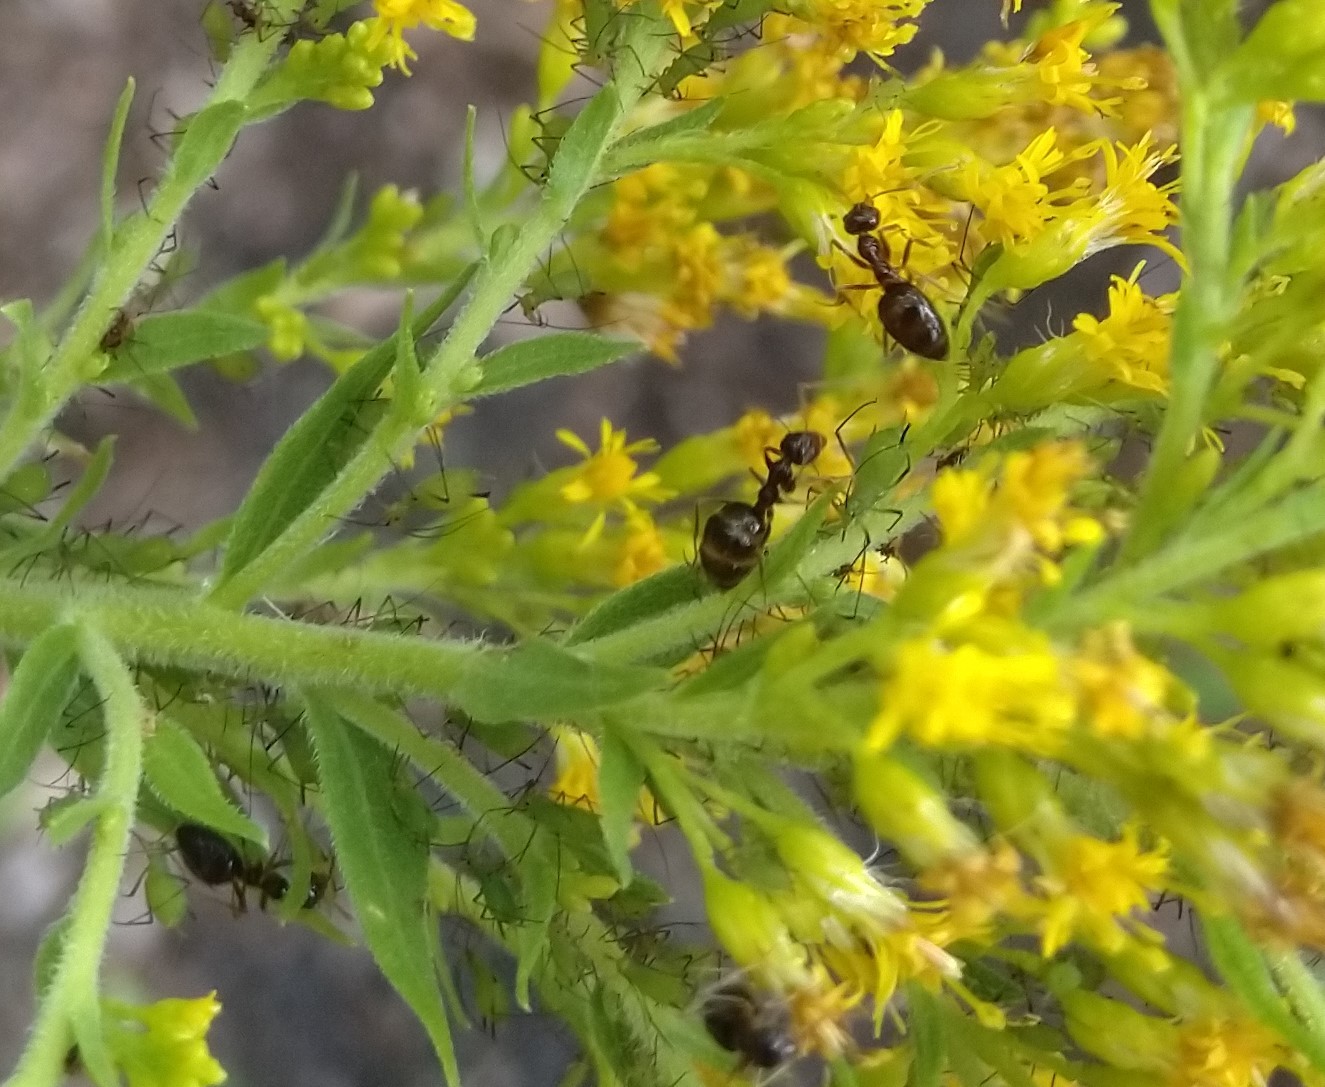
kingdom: Animalia
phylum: Arthropoda
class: Insecta
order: Hymenoptera
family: Formicidae
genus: Prenolepis
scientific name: Prenolepis imparis
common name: Small honey ant
